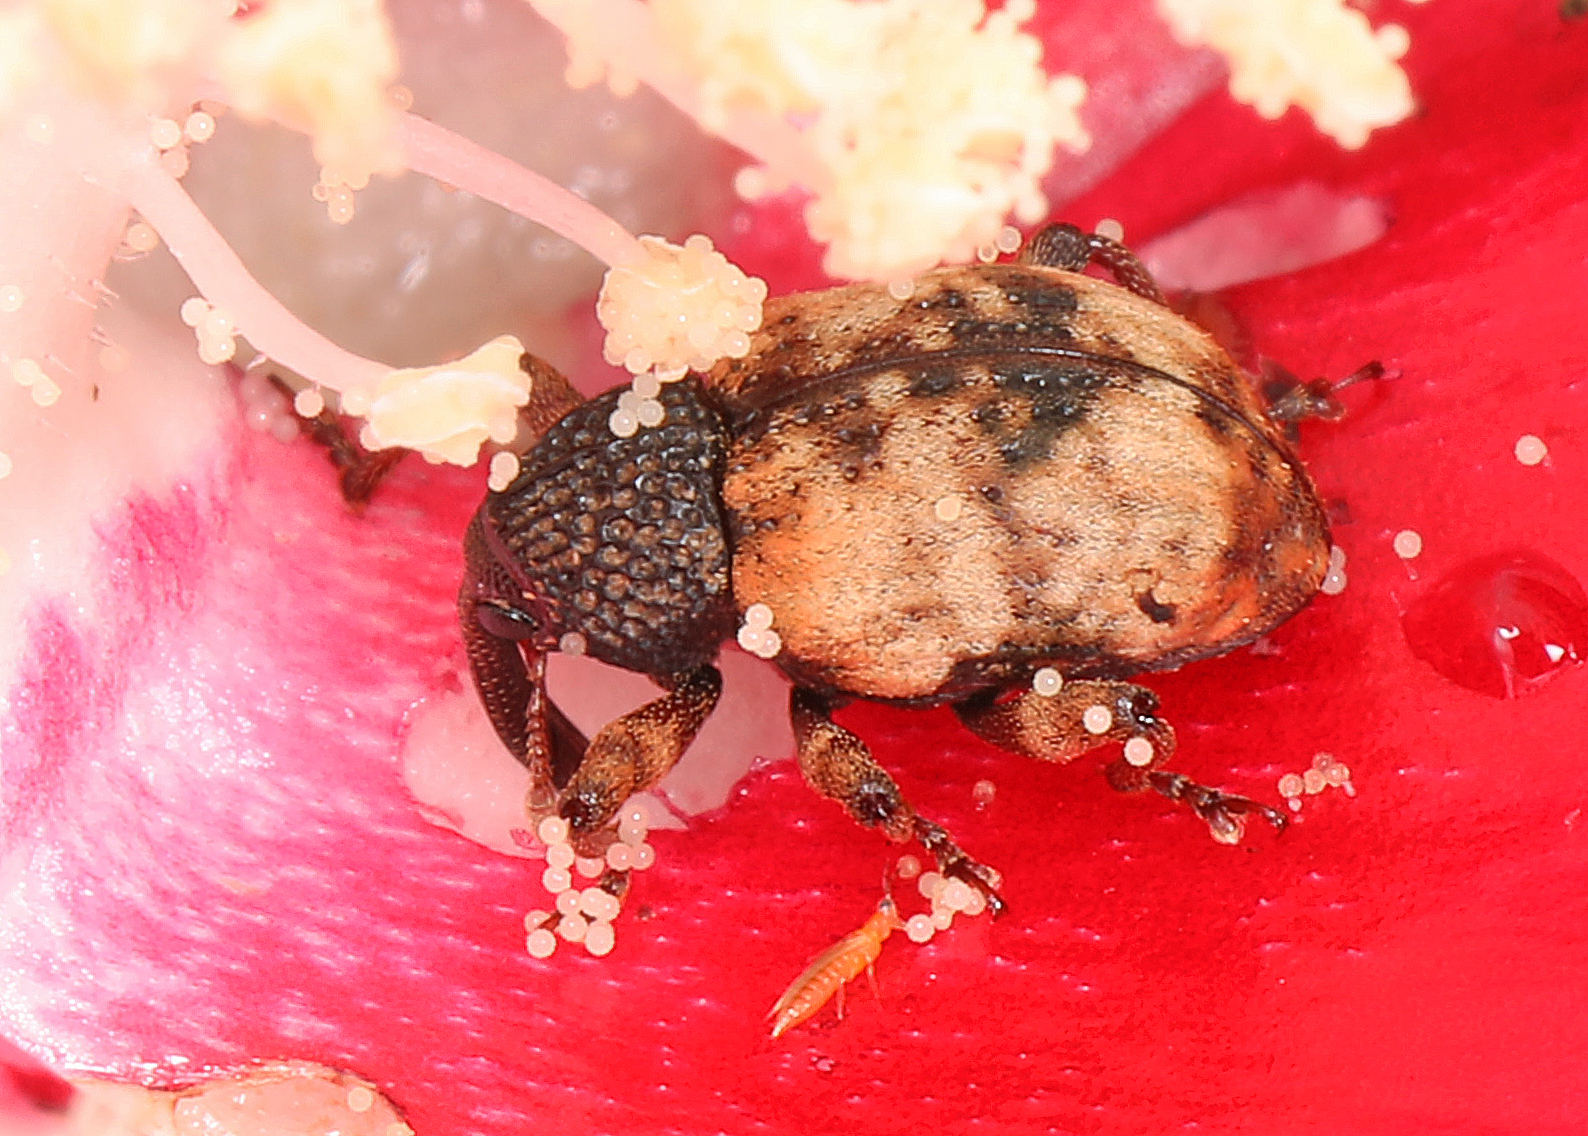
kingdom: Animalia
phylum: Arthropoda
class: Insecta
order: Coleoptera
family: Curculionidae
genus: Conotrachelus
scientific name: Conotrachelus fissunguis
